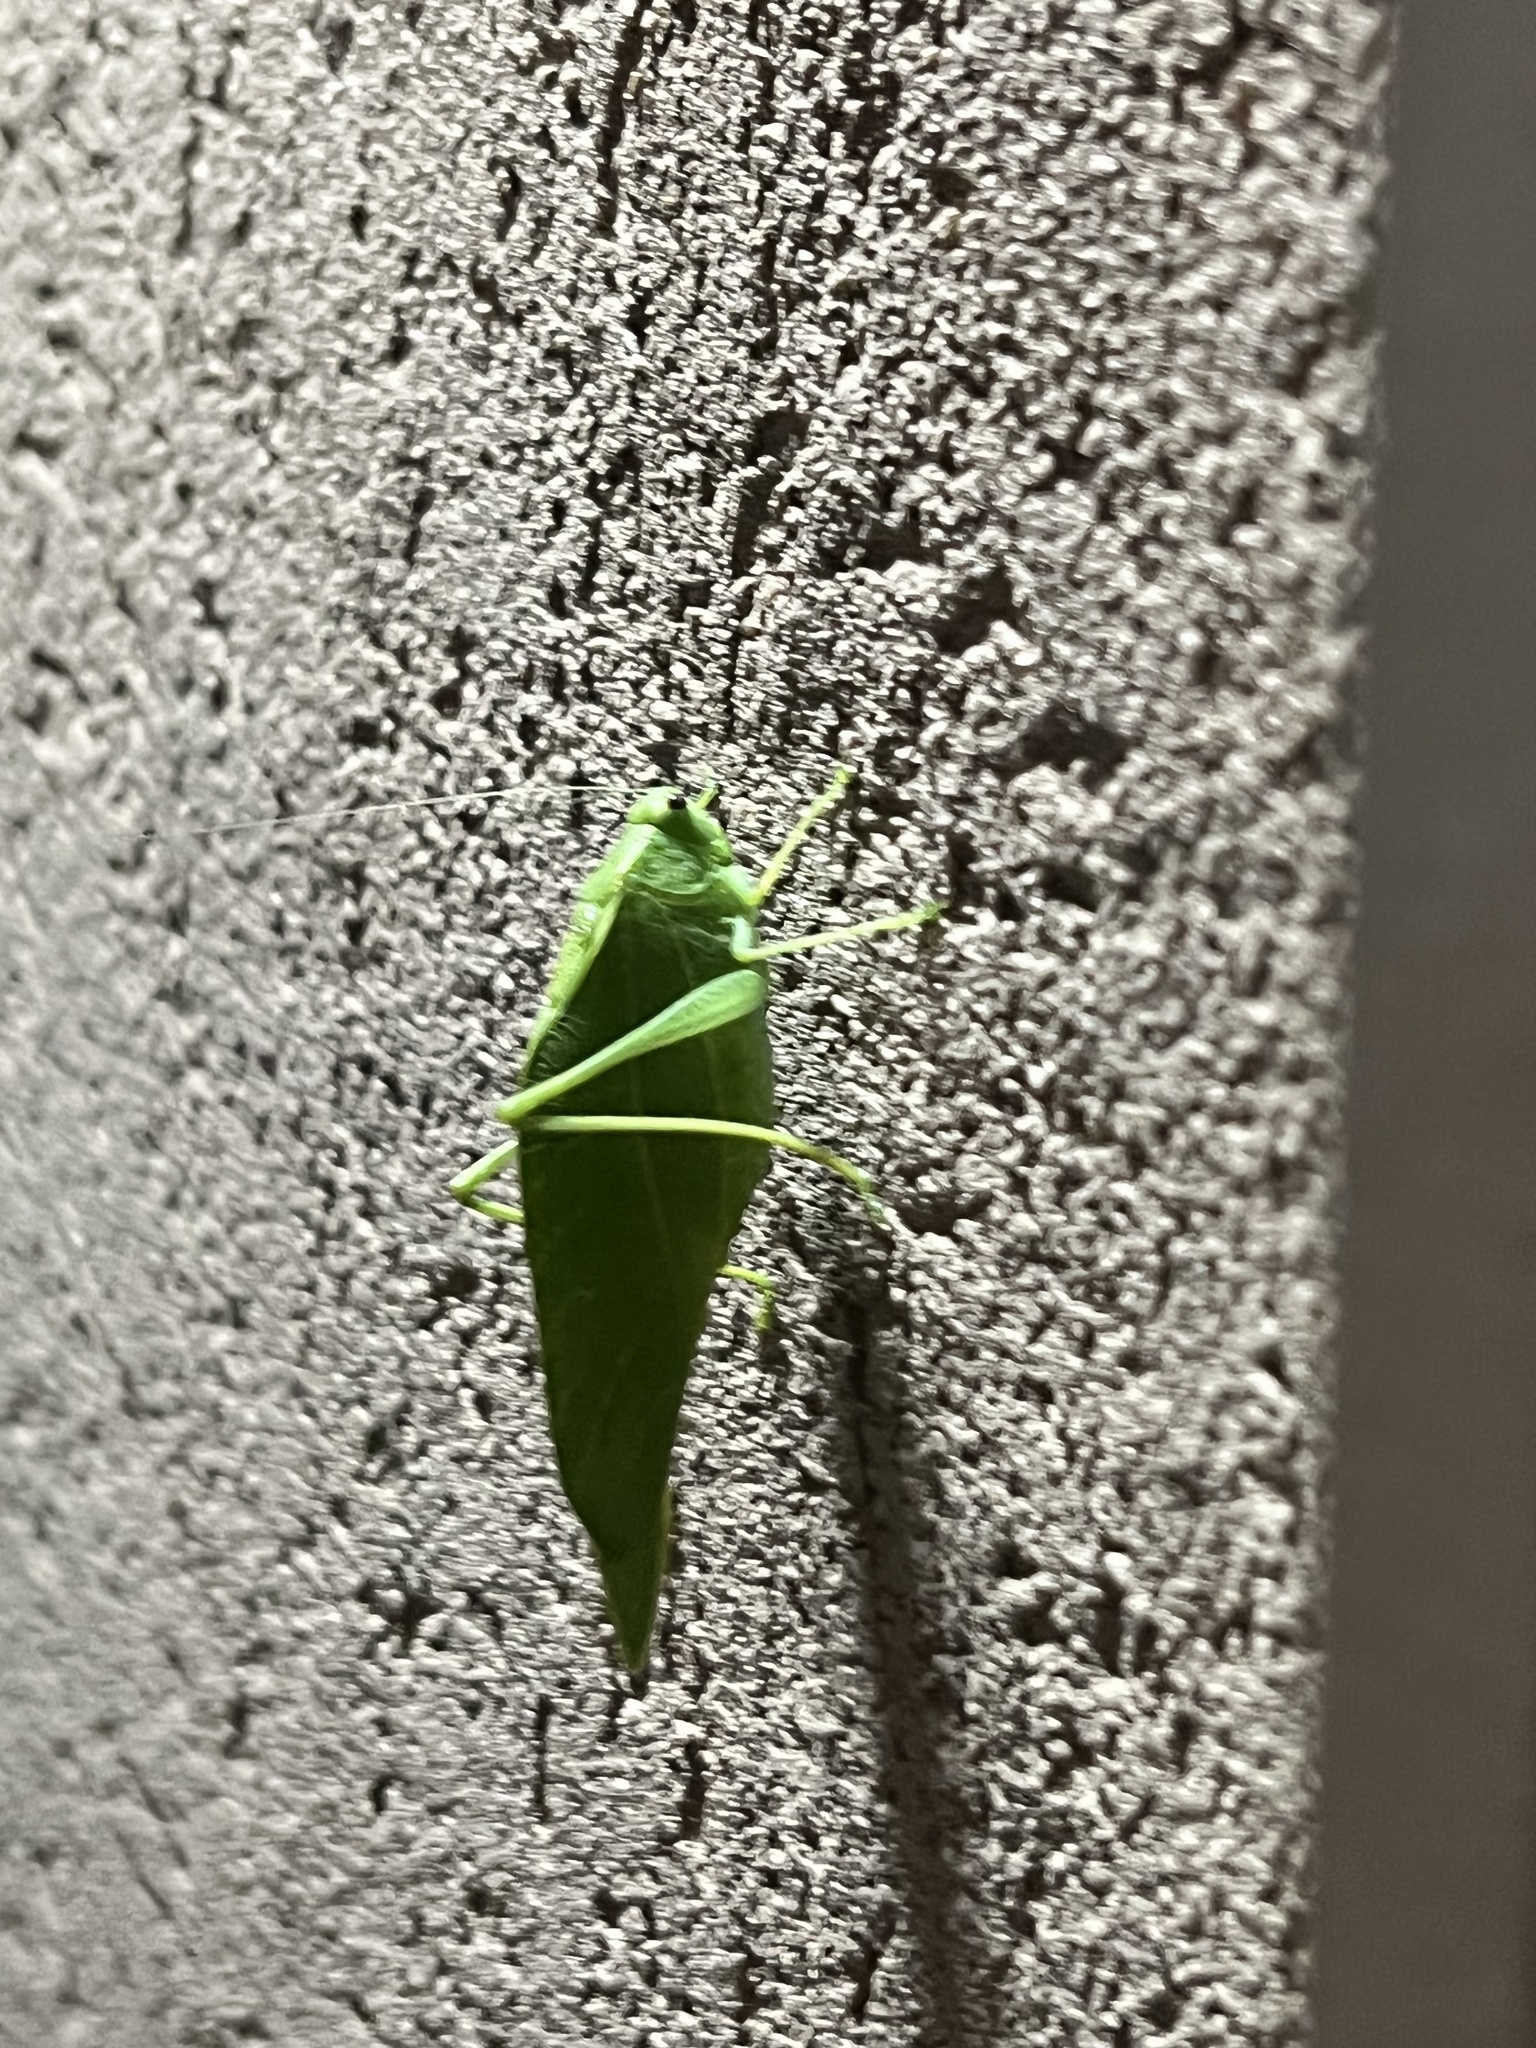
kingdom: Animalia
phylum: Arthropoda
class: Insecta
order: Orthoptera
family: Tettigoniidae
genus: Microcentrum
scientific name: Microcentrum rhombifolium
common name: Broad-winged katydid
